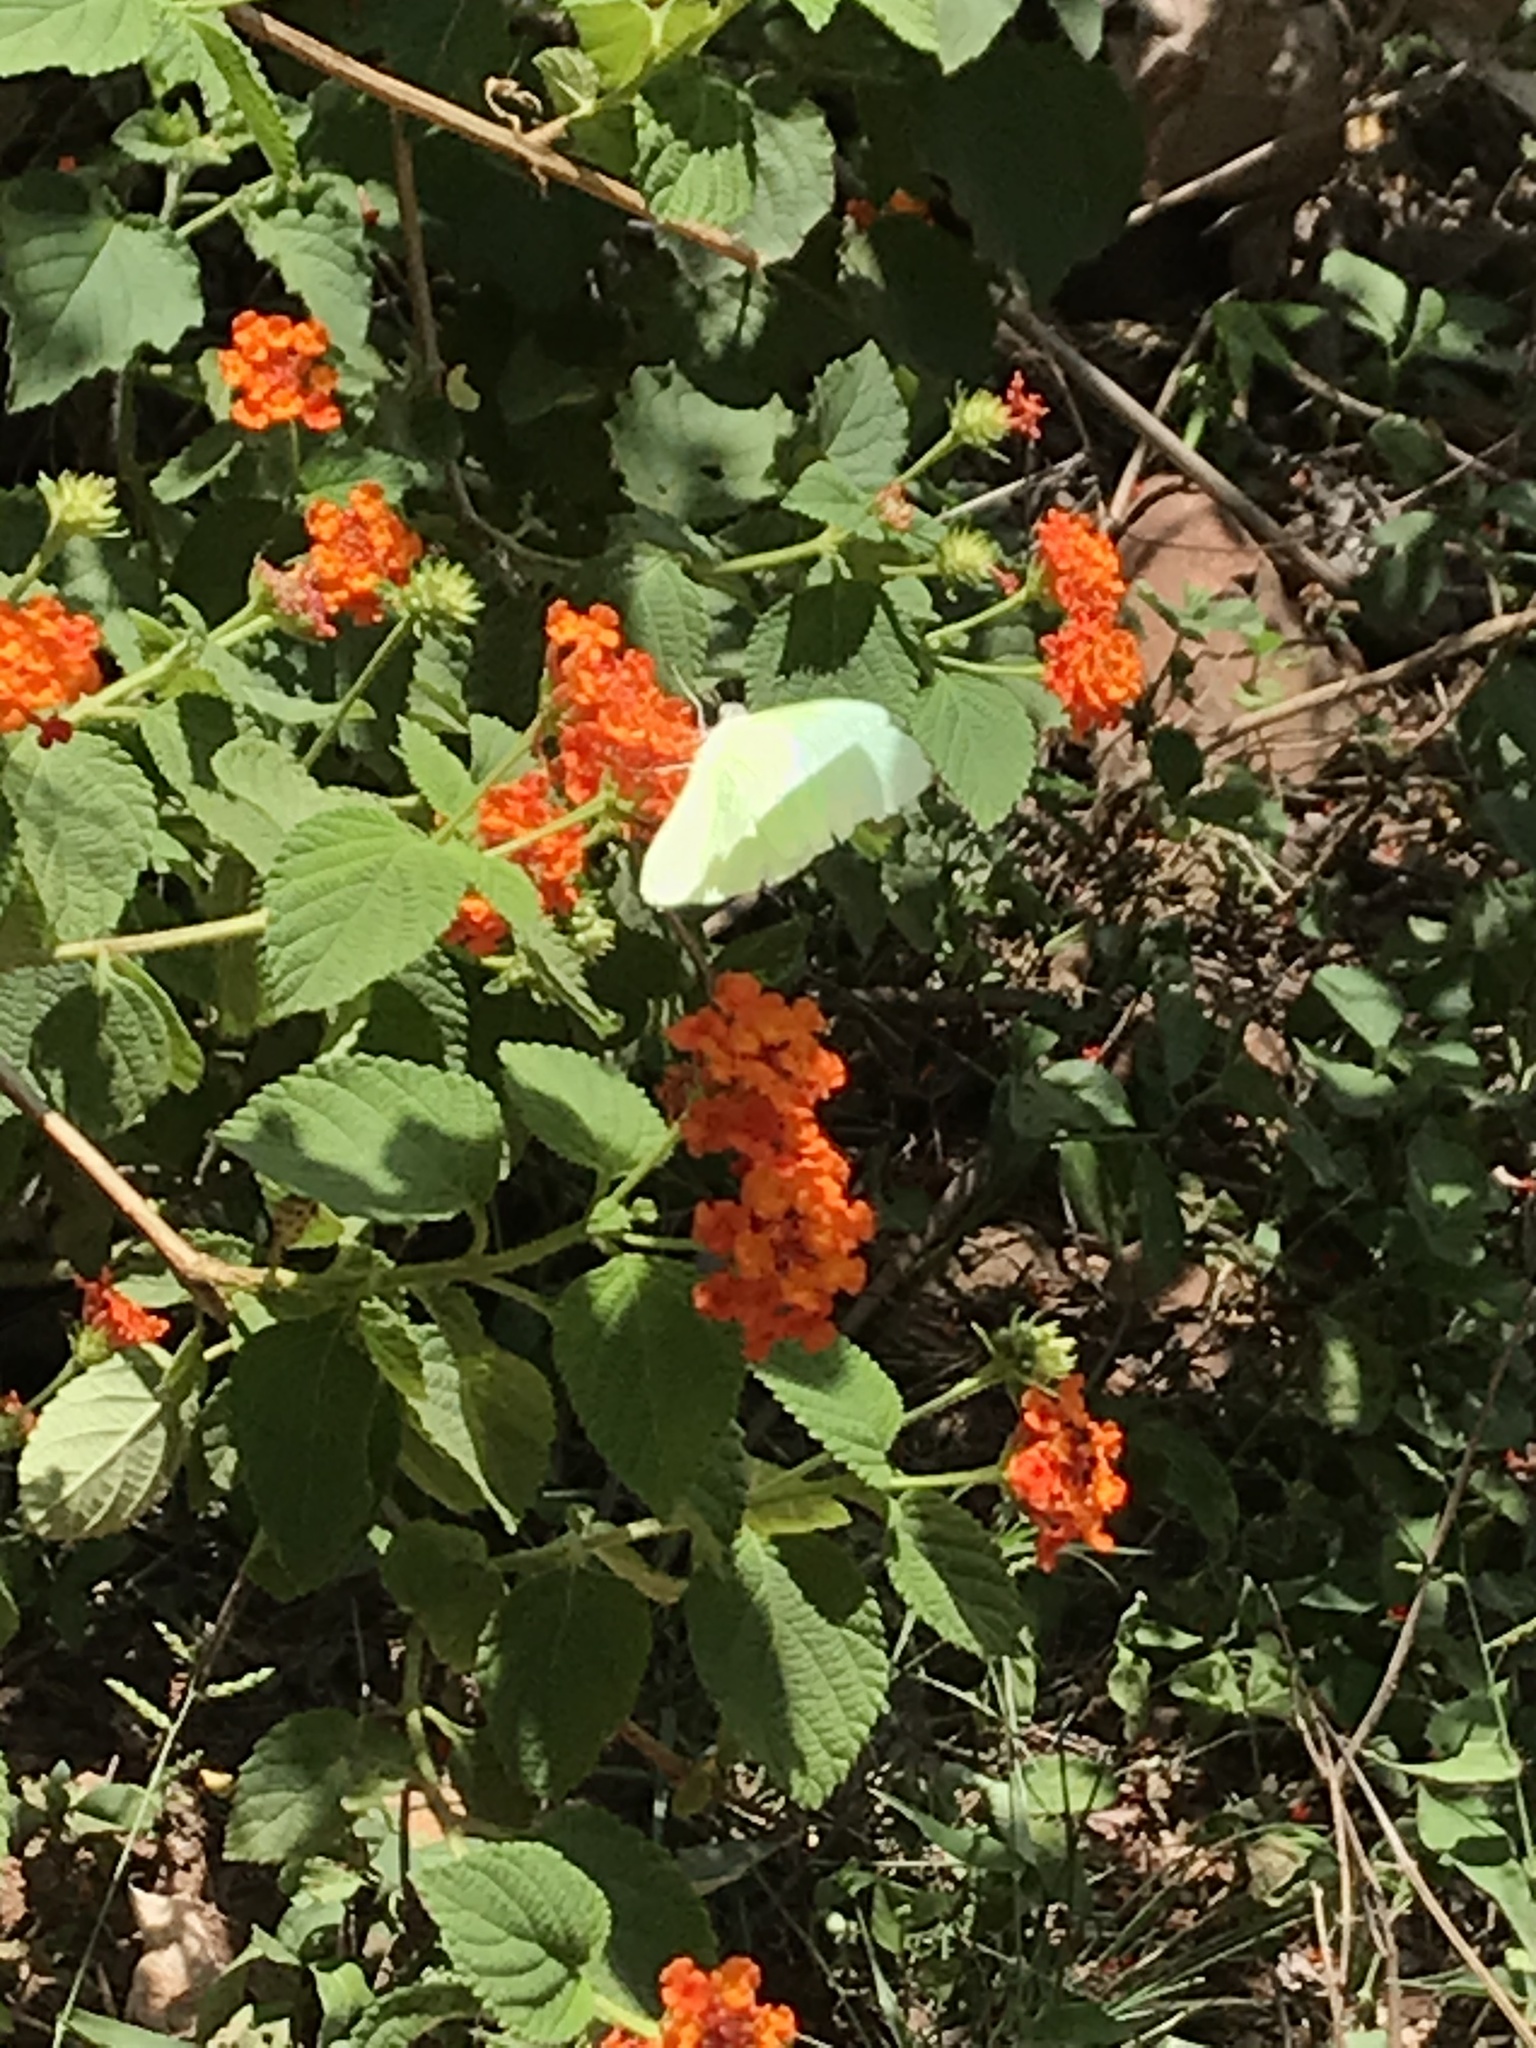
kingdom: Animalia
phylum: Arthropoda
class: Insecta
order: Lepidoptera
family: Pieridae
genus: Catopsilia
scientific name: Catopsilia pomona
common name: Common emigrant
